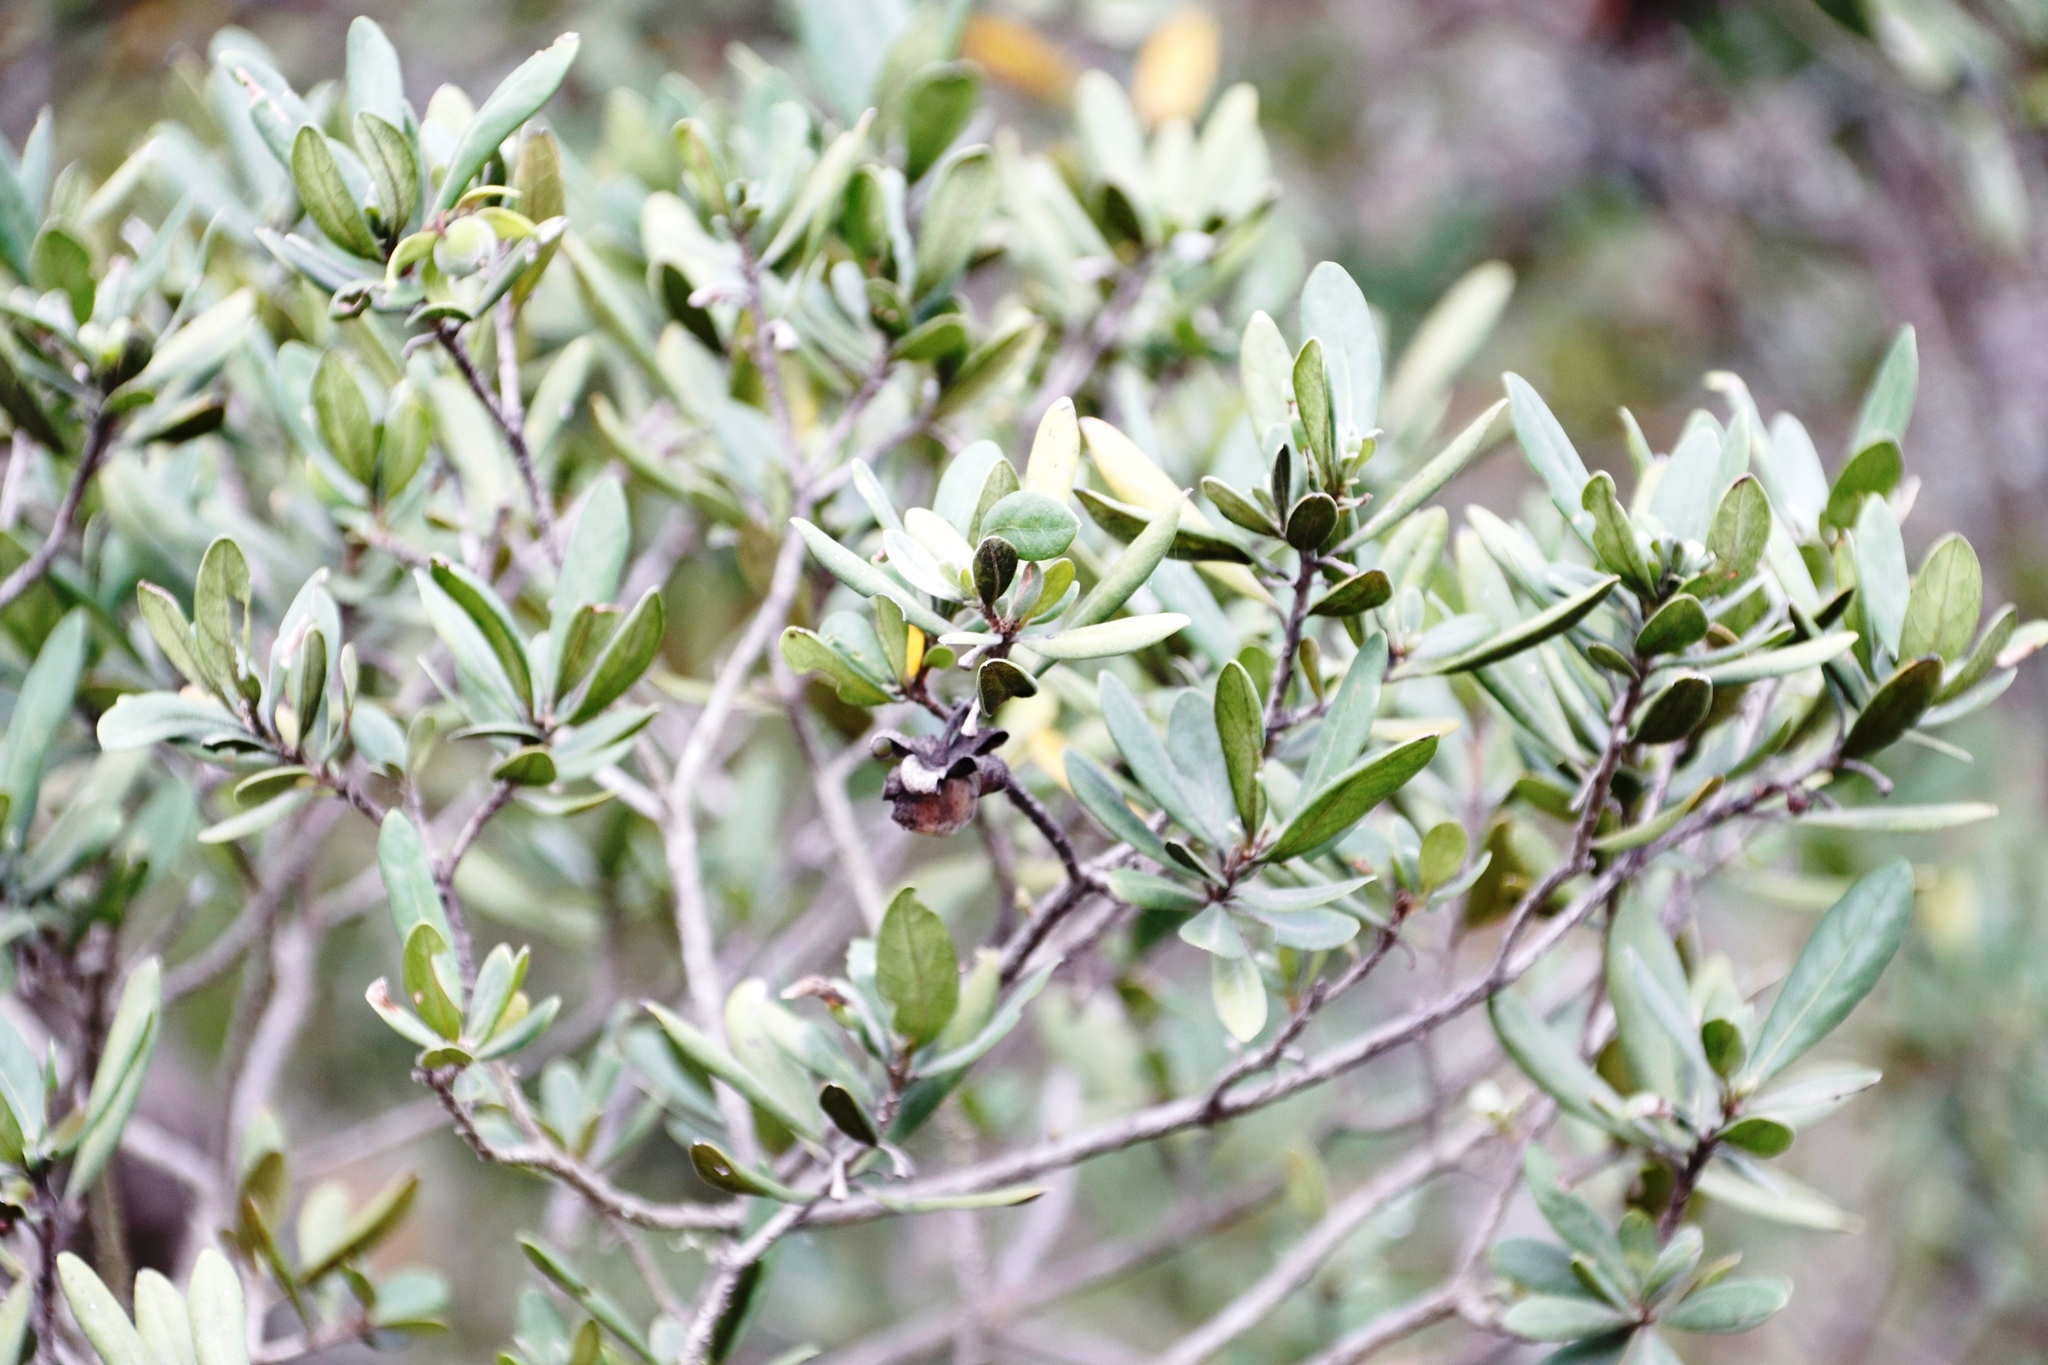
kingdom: Plantae
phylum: Tracheophyta
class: Magnoliopsida
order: Ericales
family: Ebenaceae
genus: Diospyros
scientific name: Diospyros dichrophylla
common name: Common star-apple
